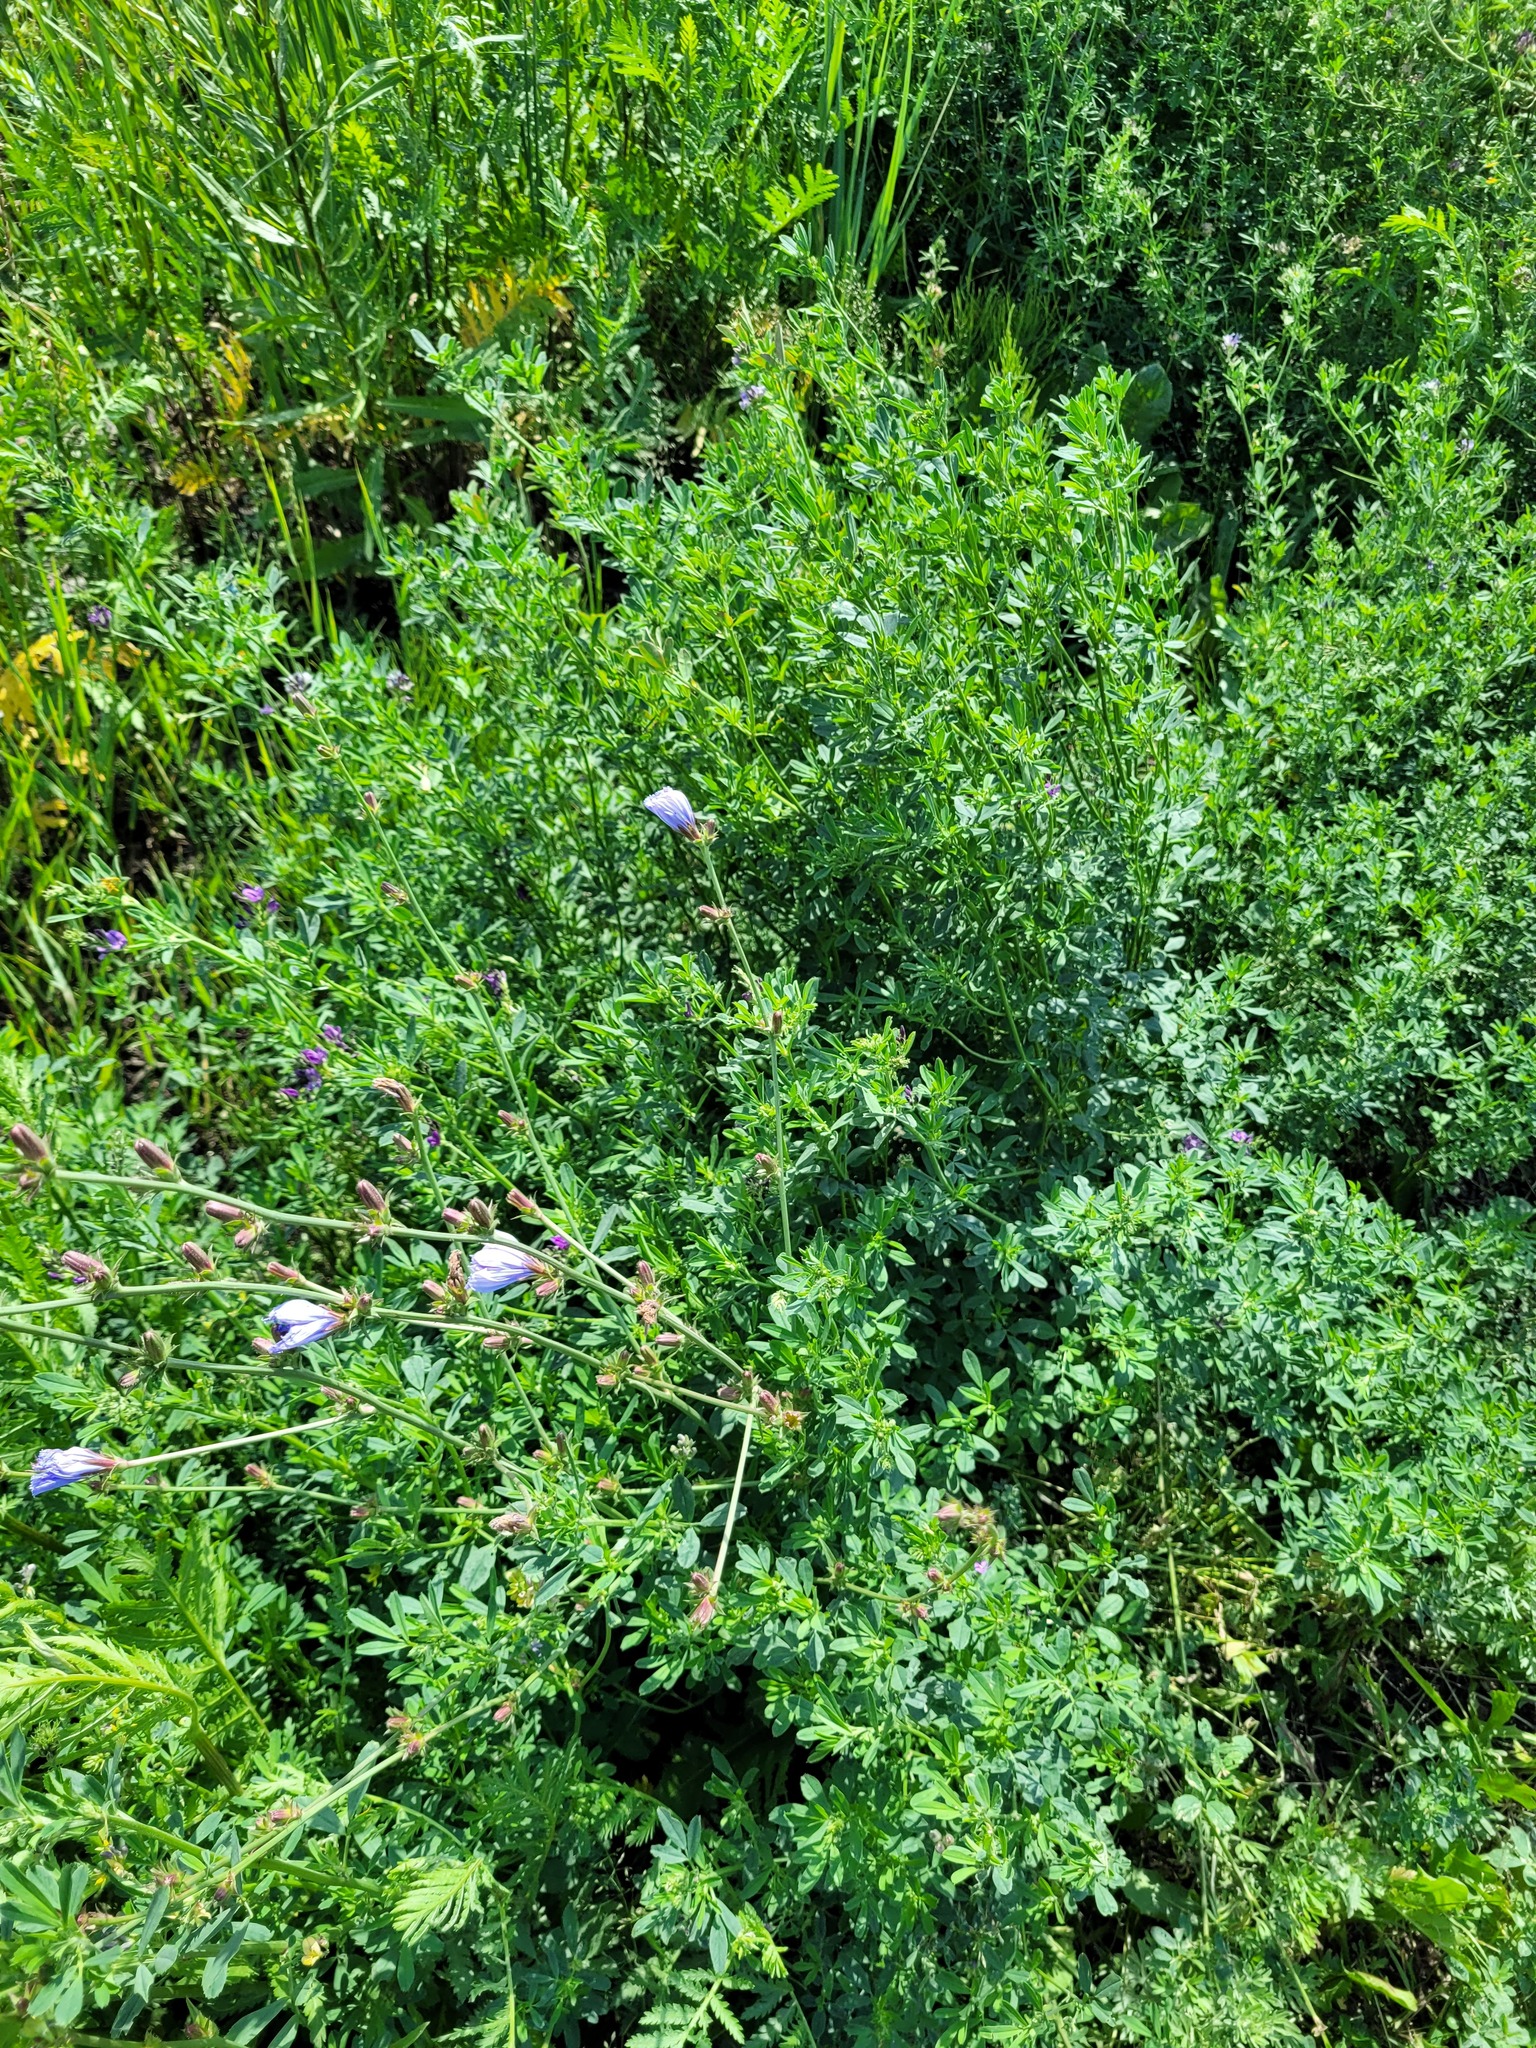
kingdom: Plantae
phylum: Tracheophyta
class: Magnoliopsida
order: Asterales
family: Asteraceae
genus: Cichorium
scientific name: Cichorium intybus
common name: Chicory
